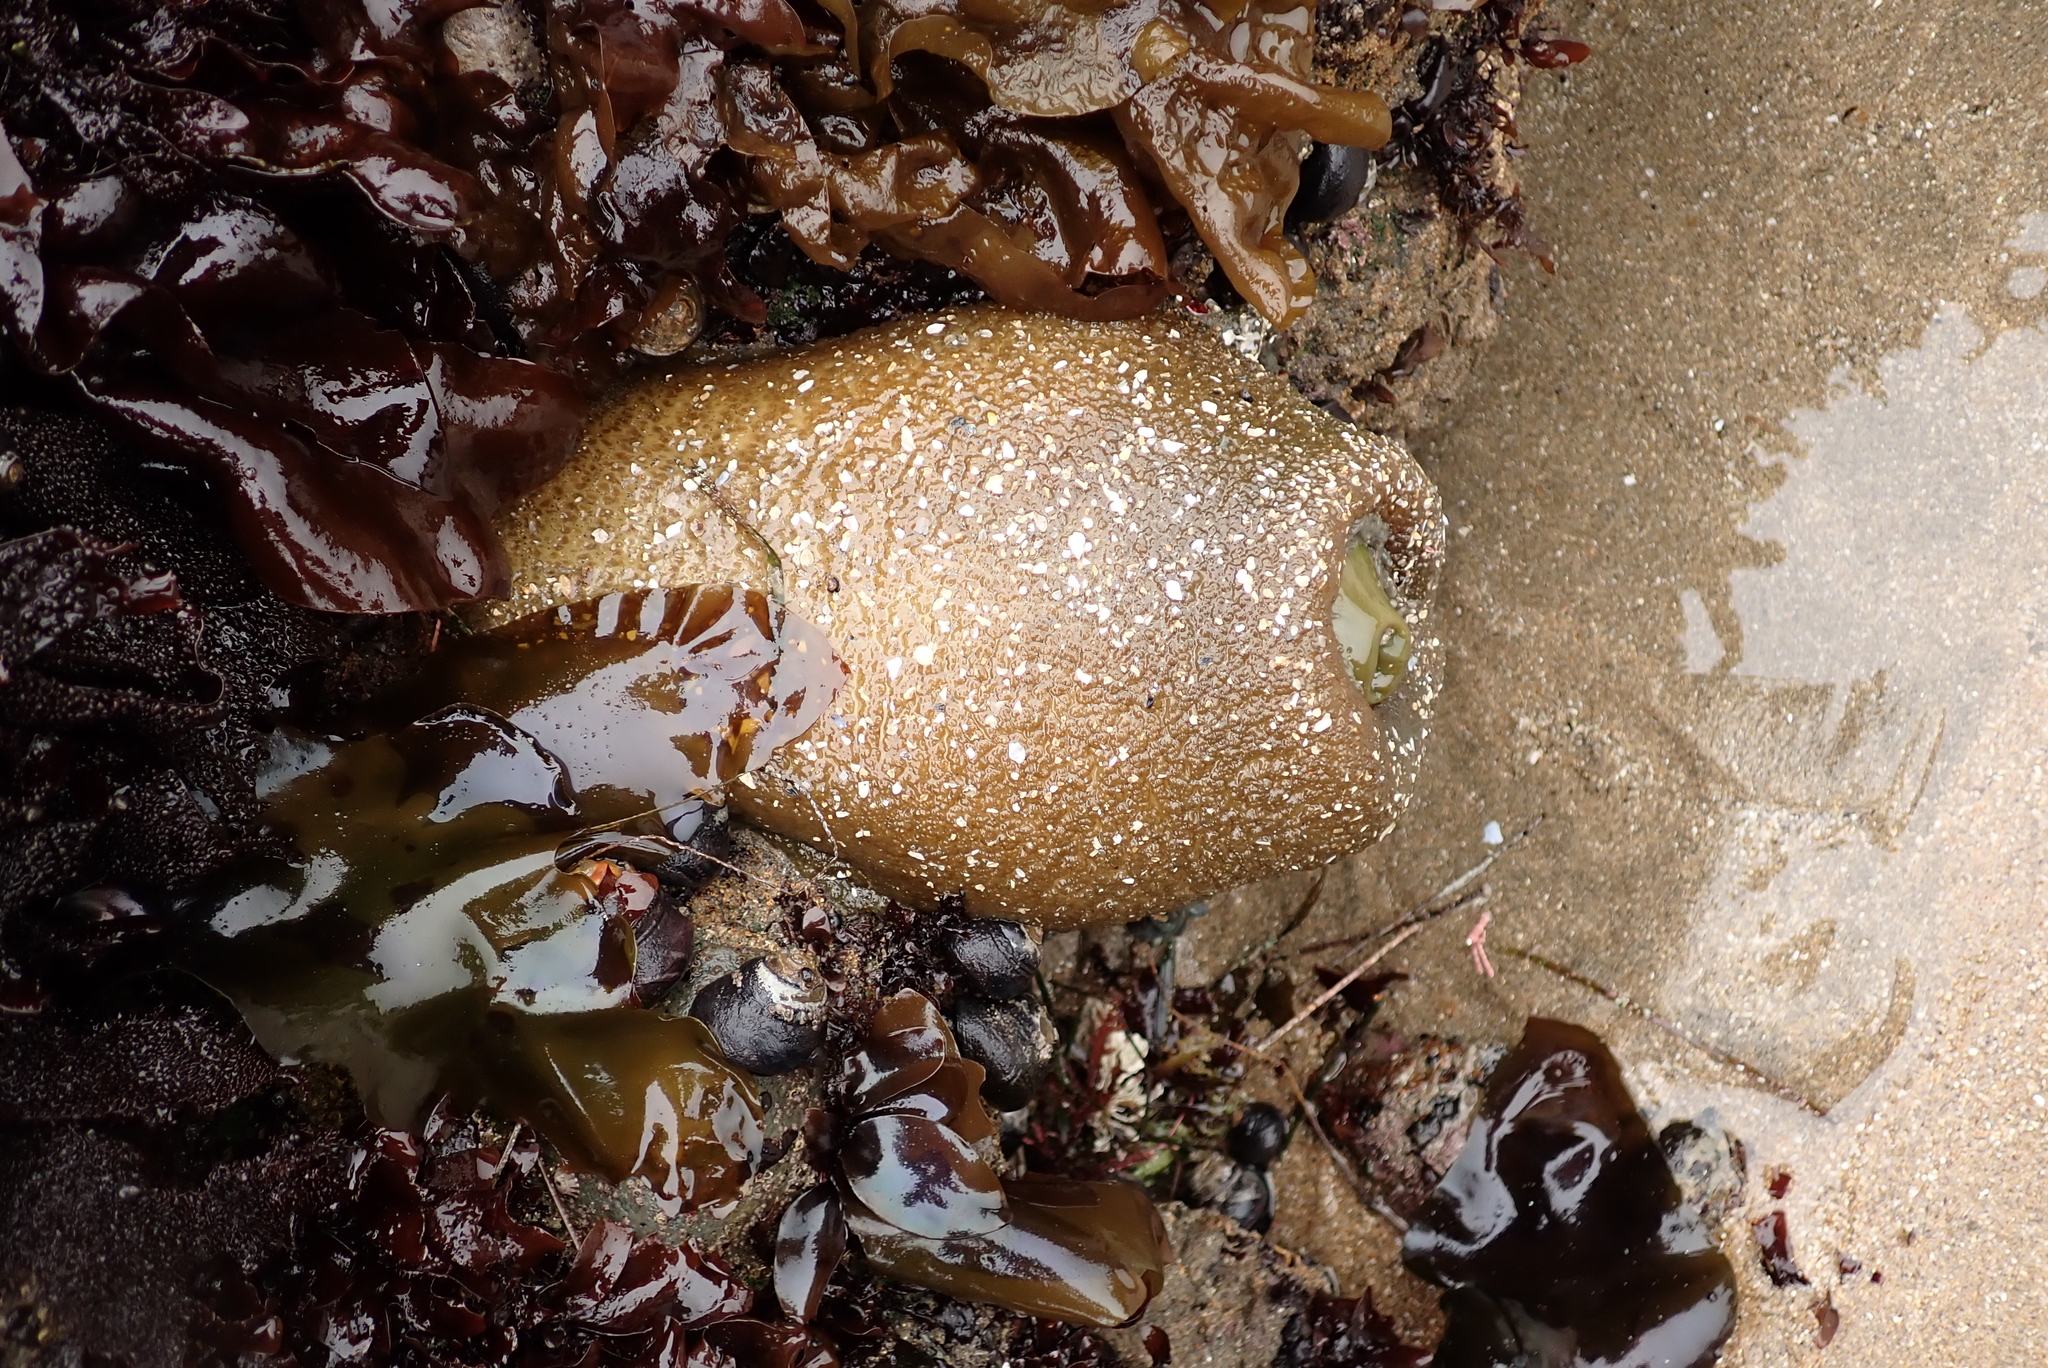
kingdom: Animalia
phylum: Cnidaria
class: Anthozoa
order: Actiniaria
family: Actiniidae
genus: Anthopleura
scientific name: Anthopleura xanthogrammica
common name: Giant green anemone
